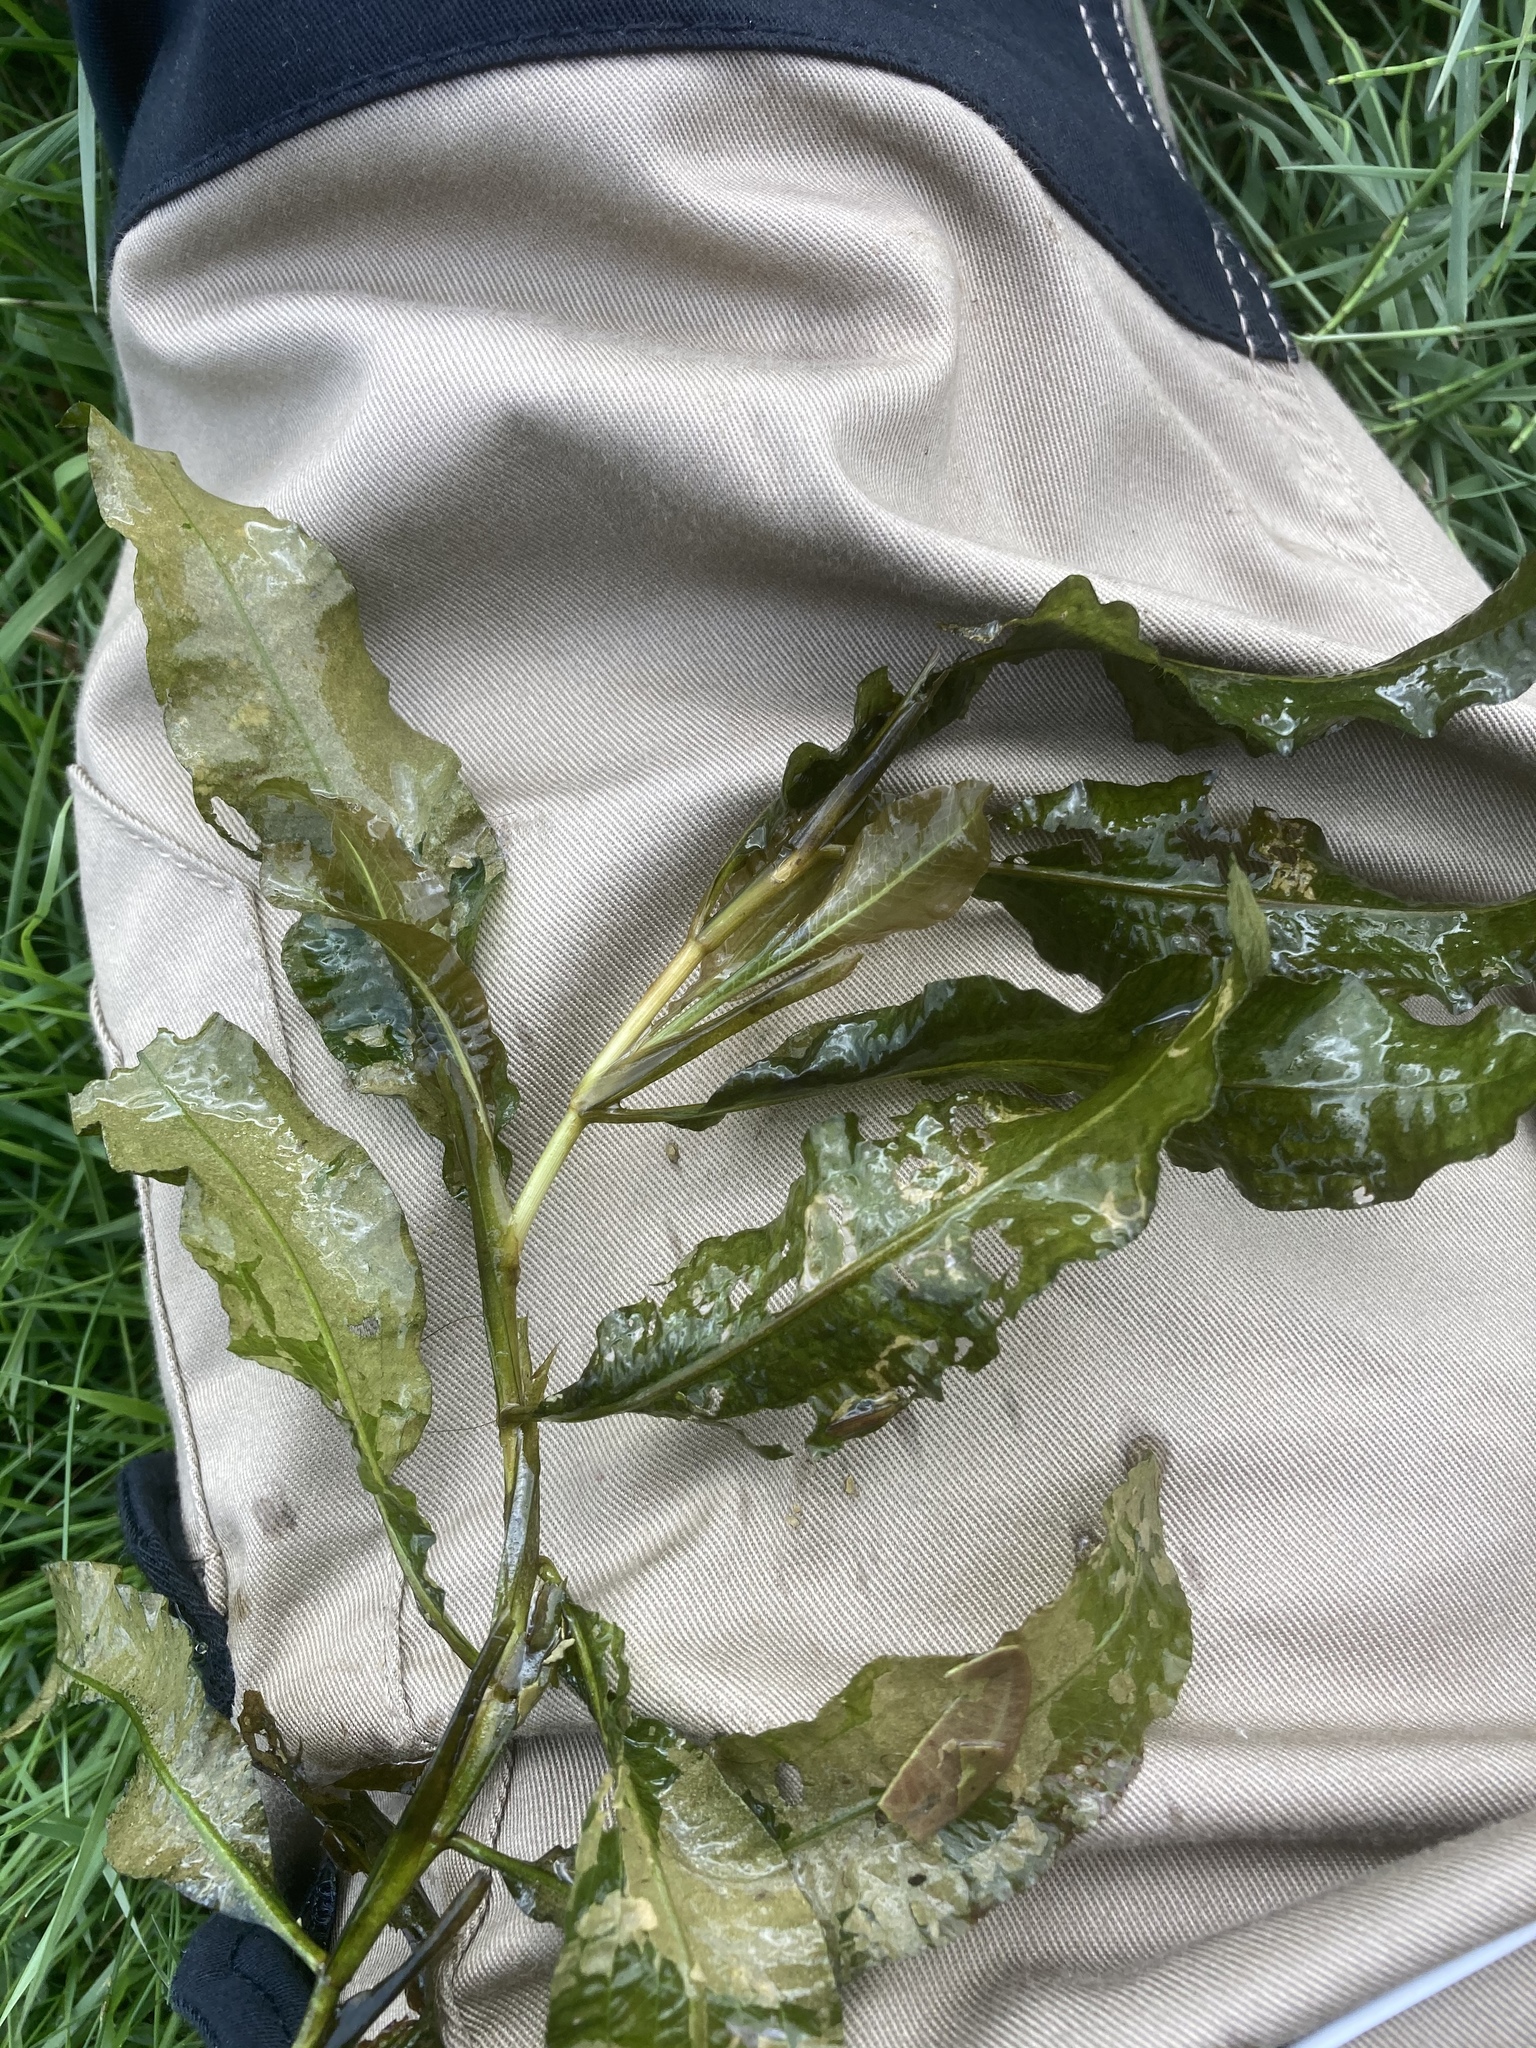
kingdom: Plantae
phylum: Tracheophyta
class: Liliopsida
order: Alismatales
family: Potamogetonaceae
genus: Potamogeton
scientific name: Potamogeton lucens
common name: Shining pondweed
